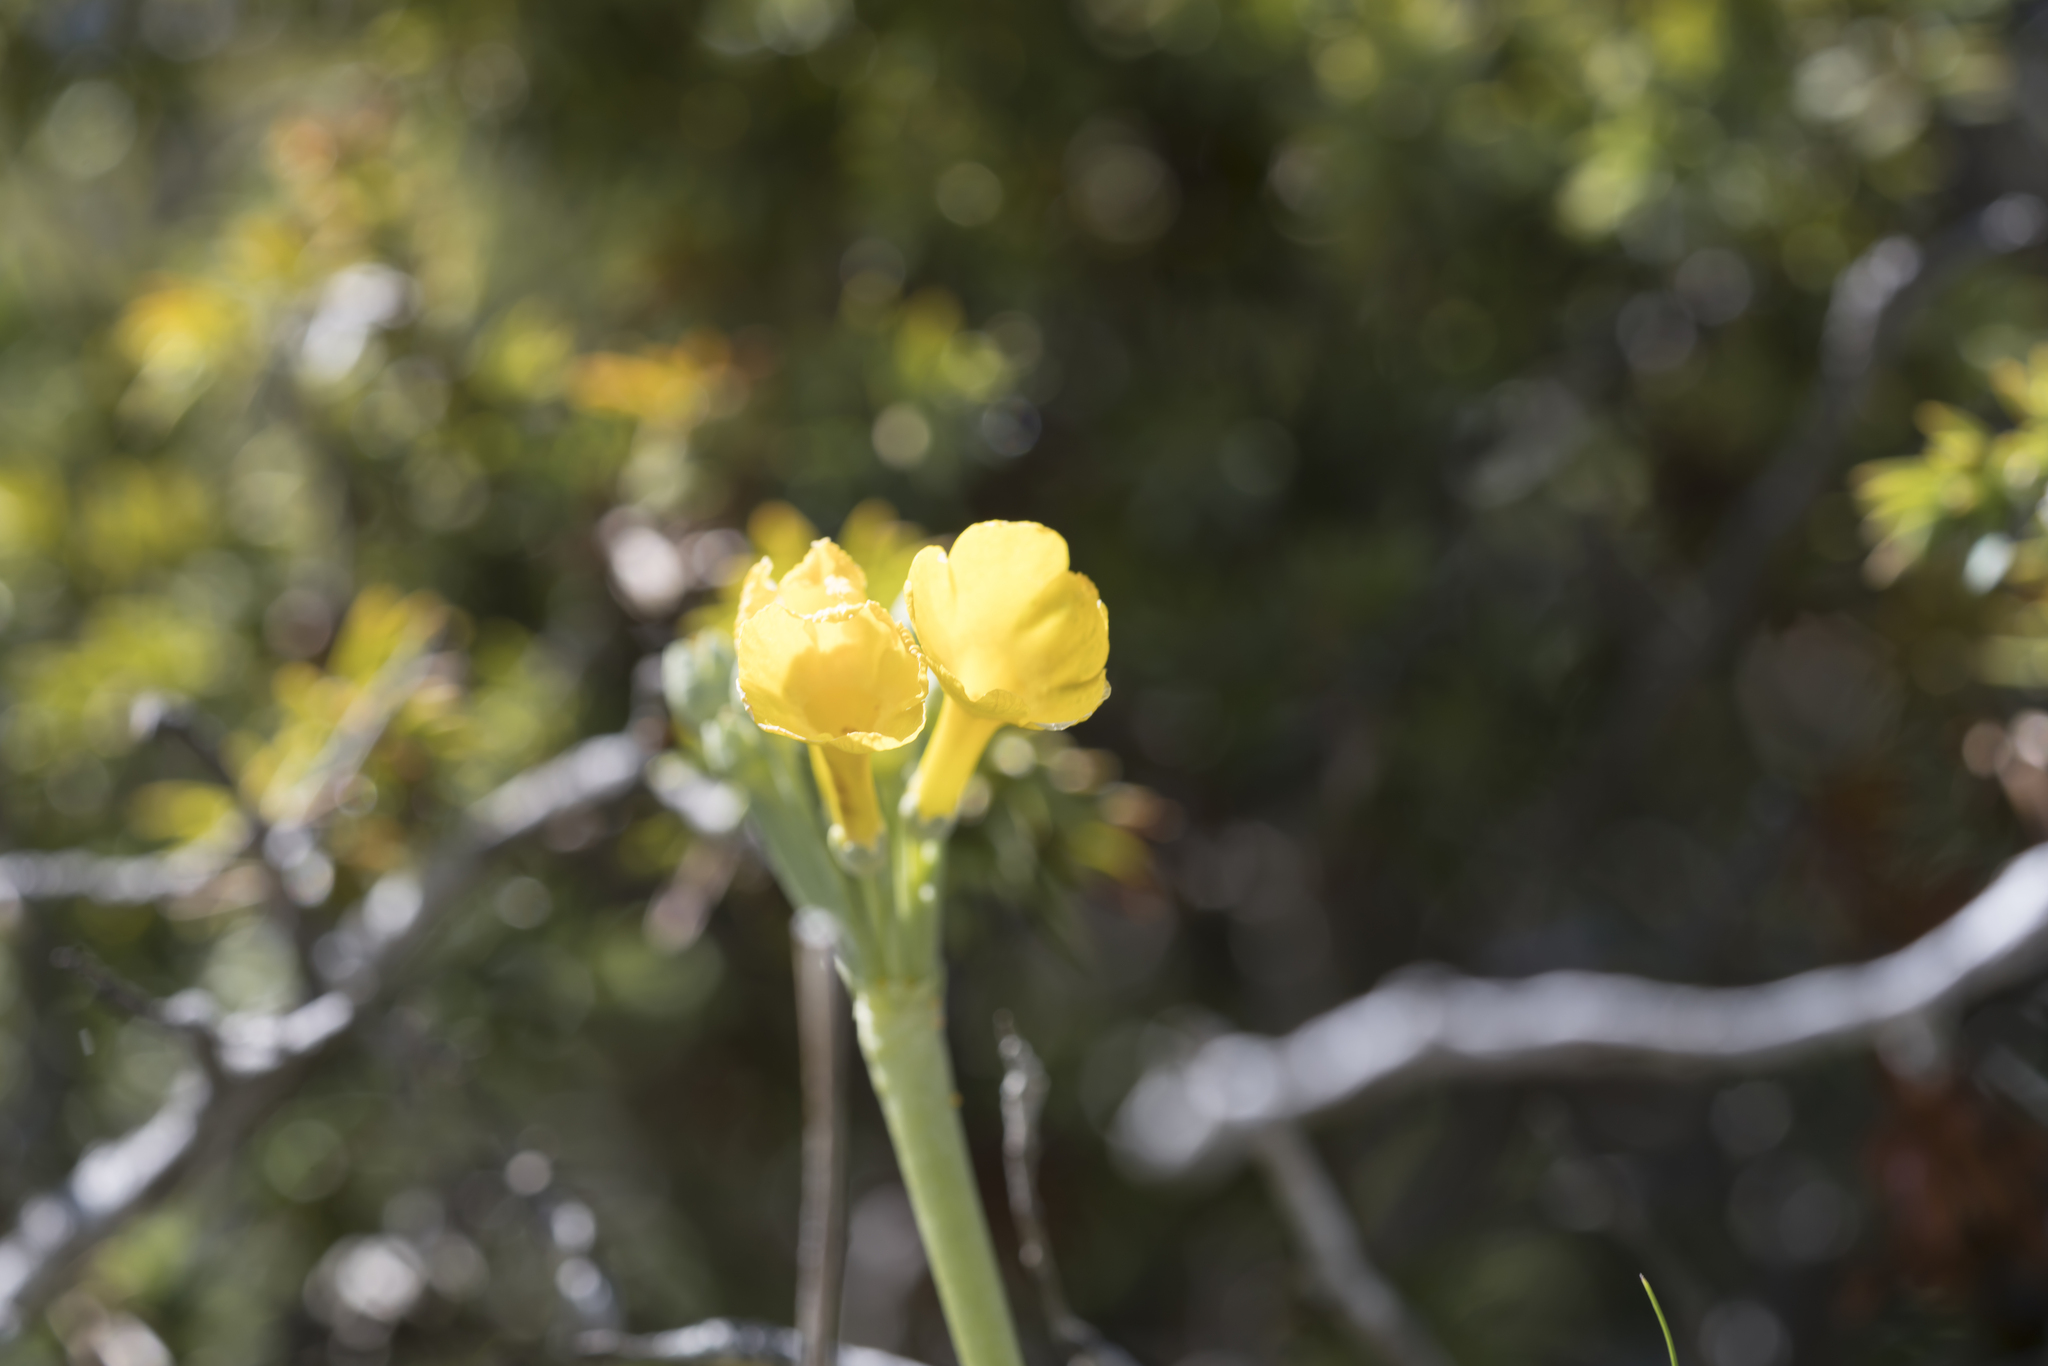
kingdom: Plantae
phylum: Tracheophyta
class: Magnoliopsida
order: Ericales
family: Primulaceae
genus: Primula
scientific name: Primula auricula
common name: Auricula
